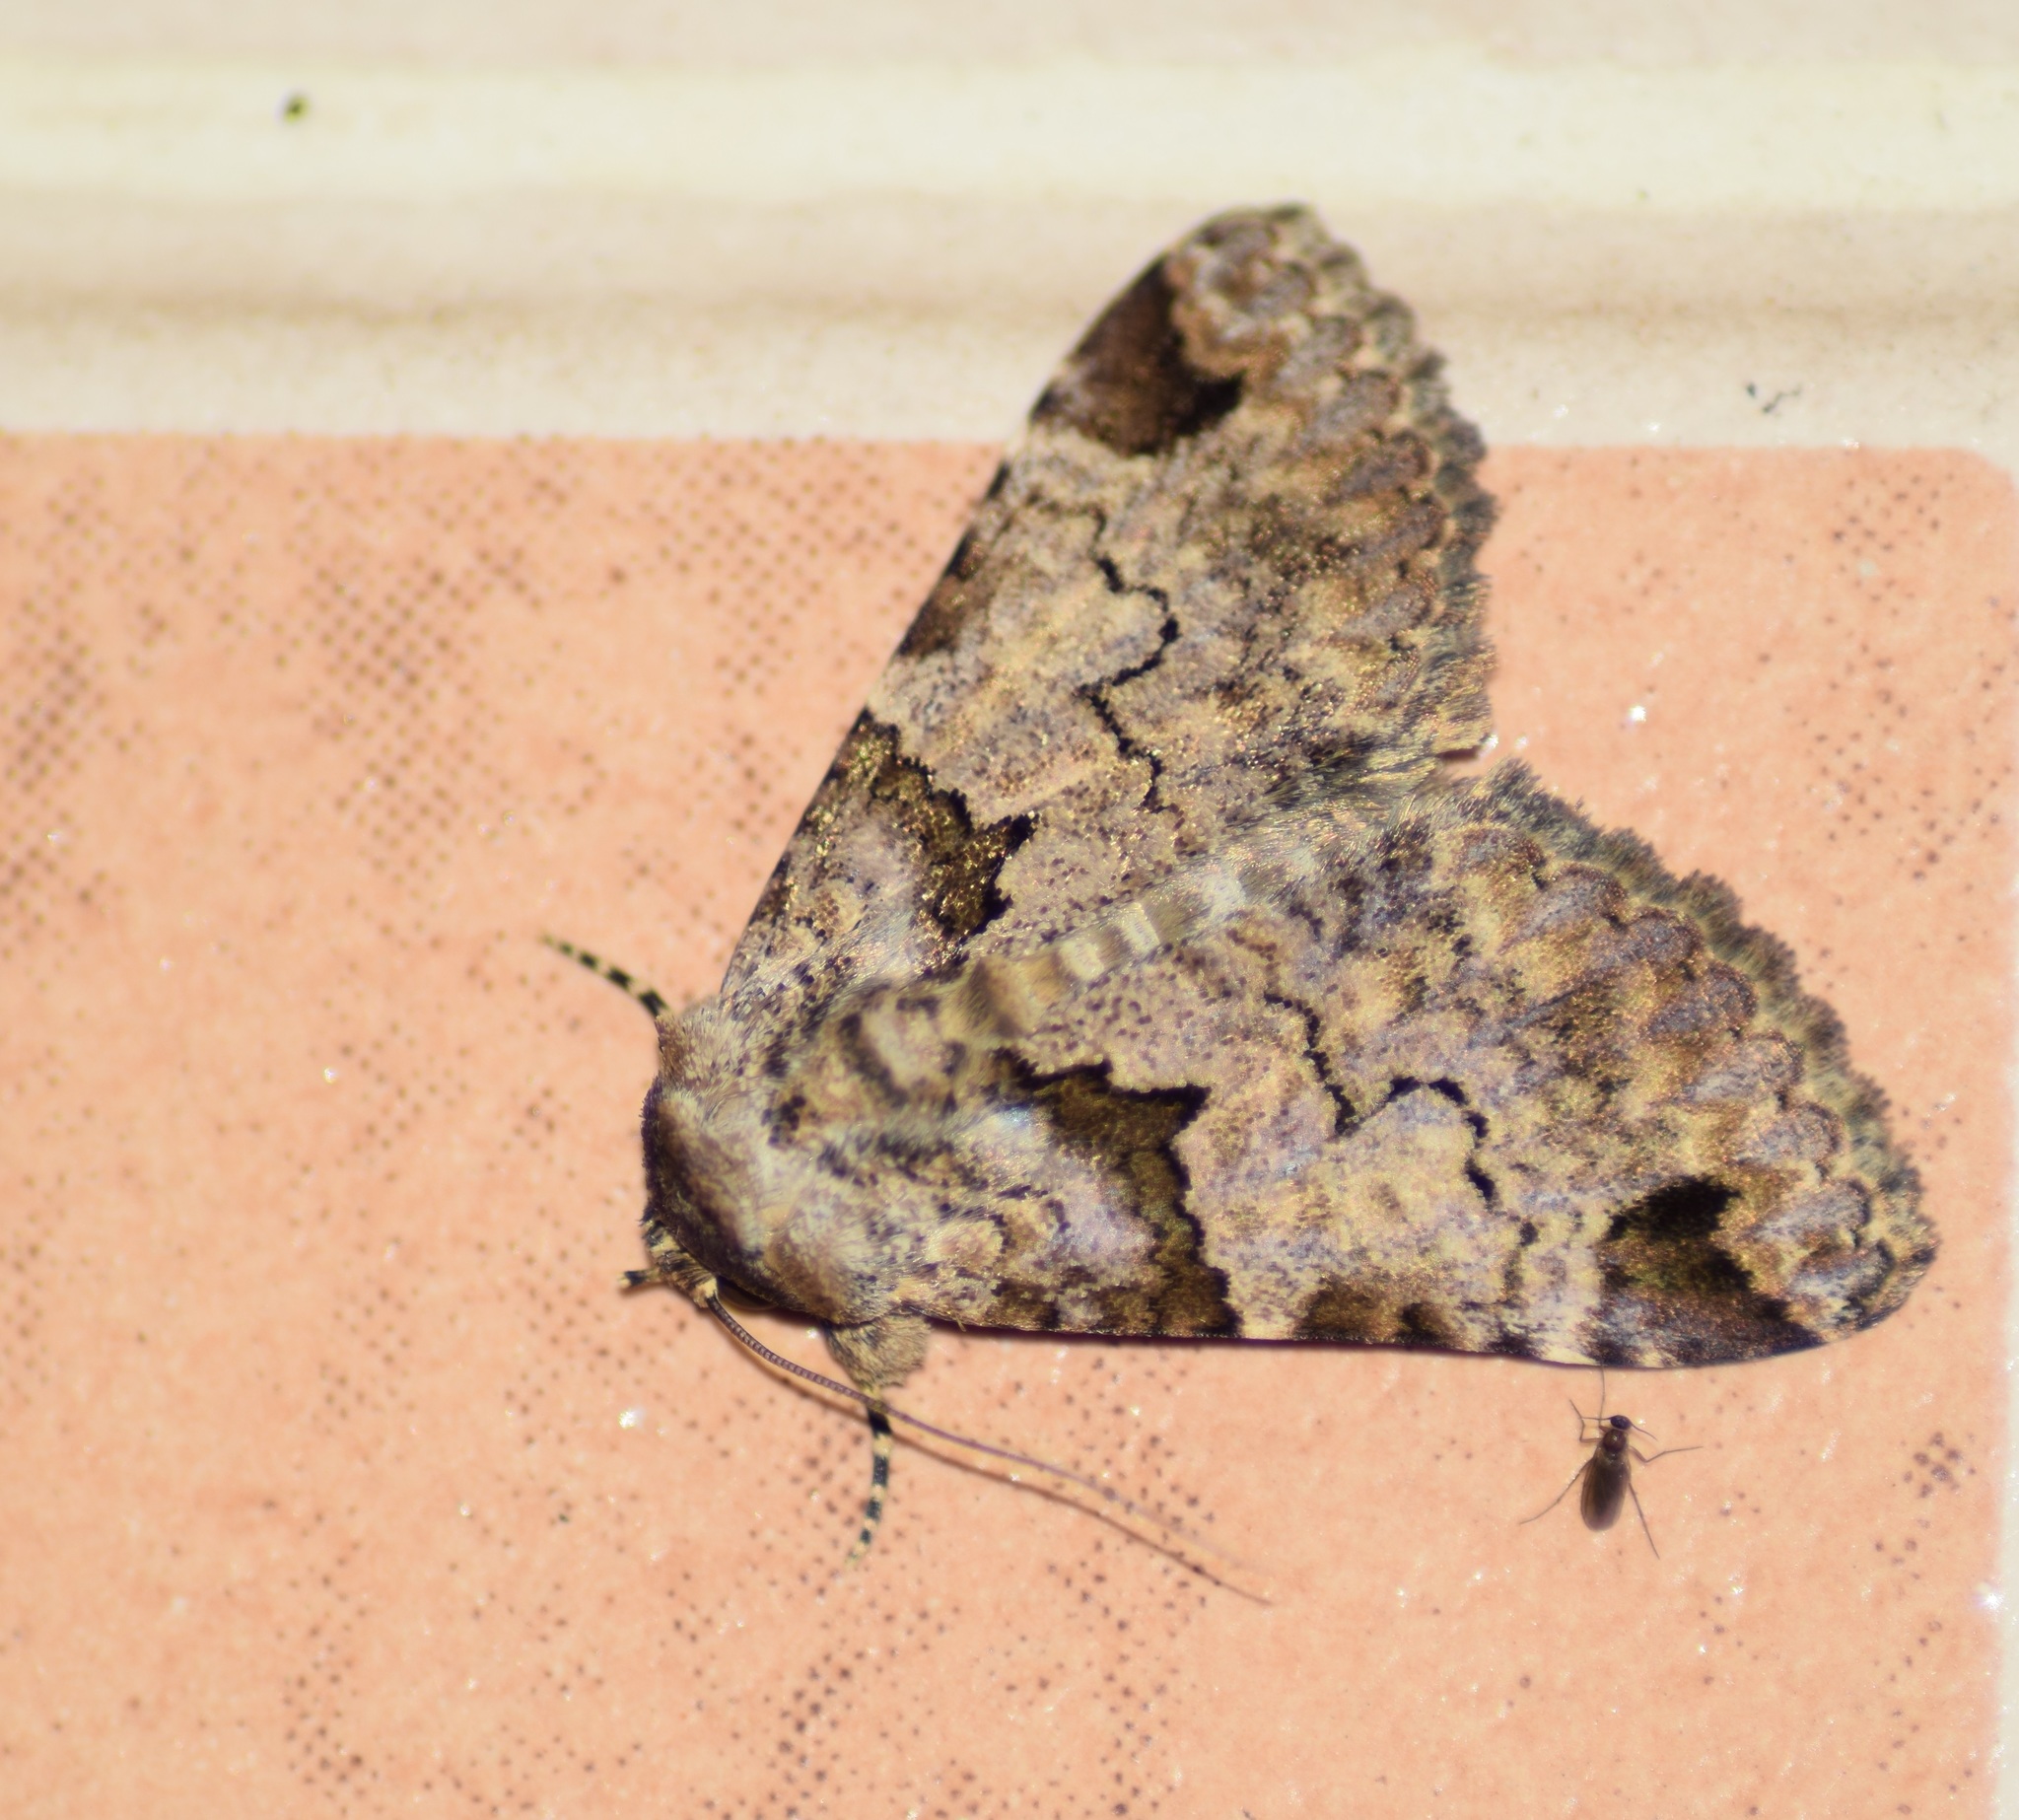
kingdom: Animalia
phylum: Arthropoda
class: Insecta
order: Lepidoptera
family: Erebidae
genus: Erygia
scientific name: Erygia spissa
